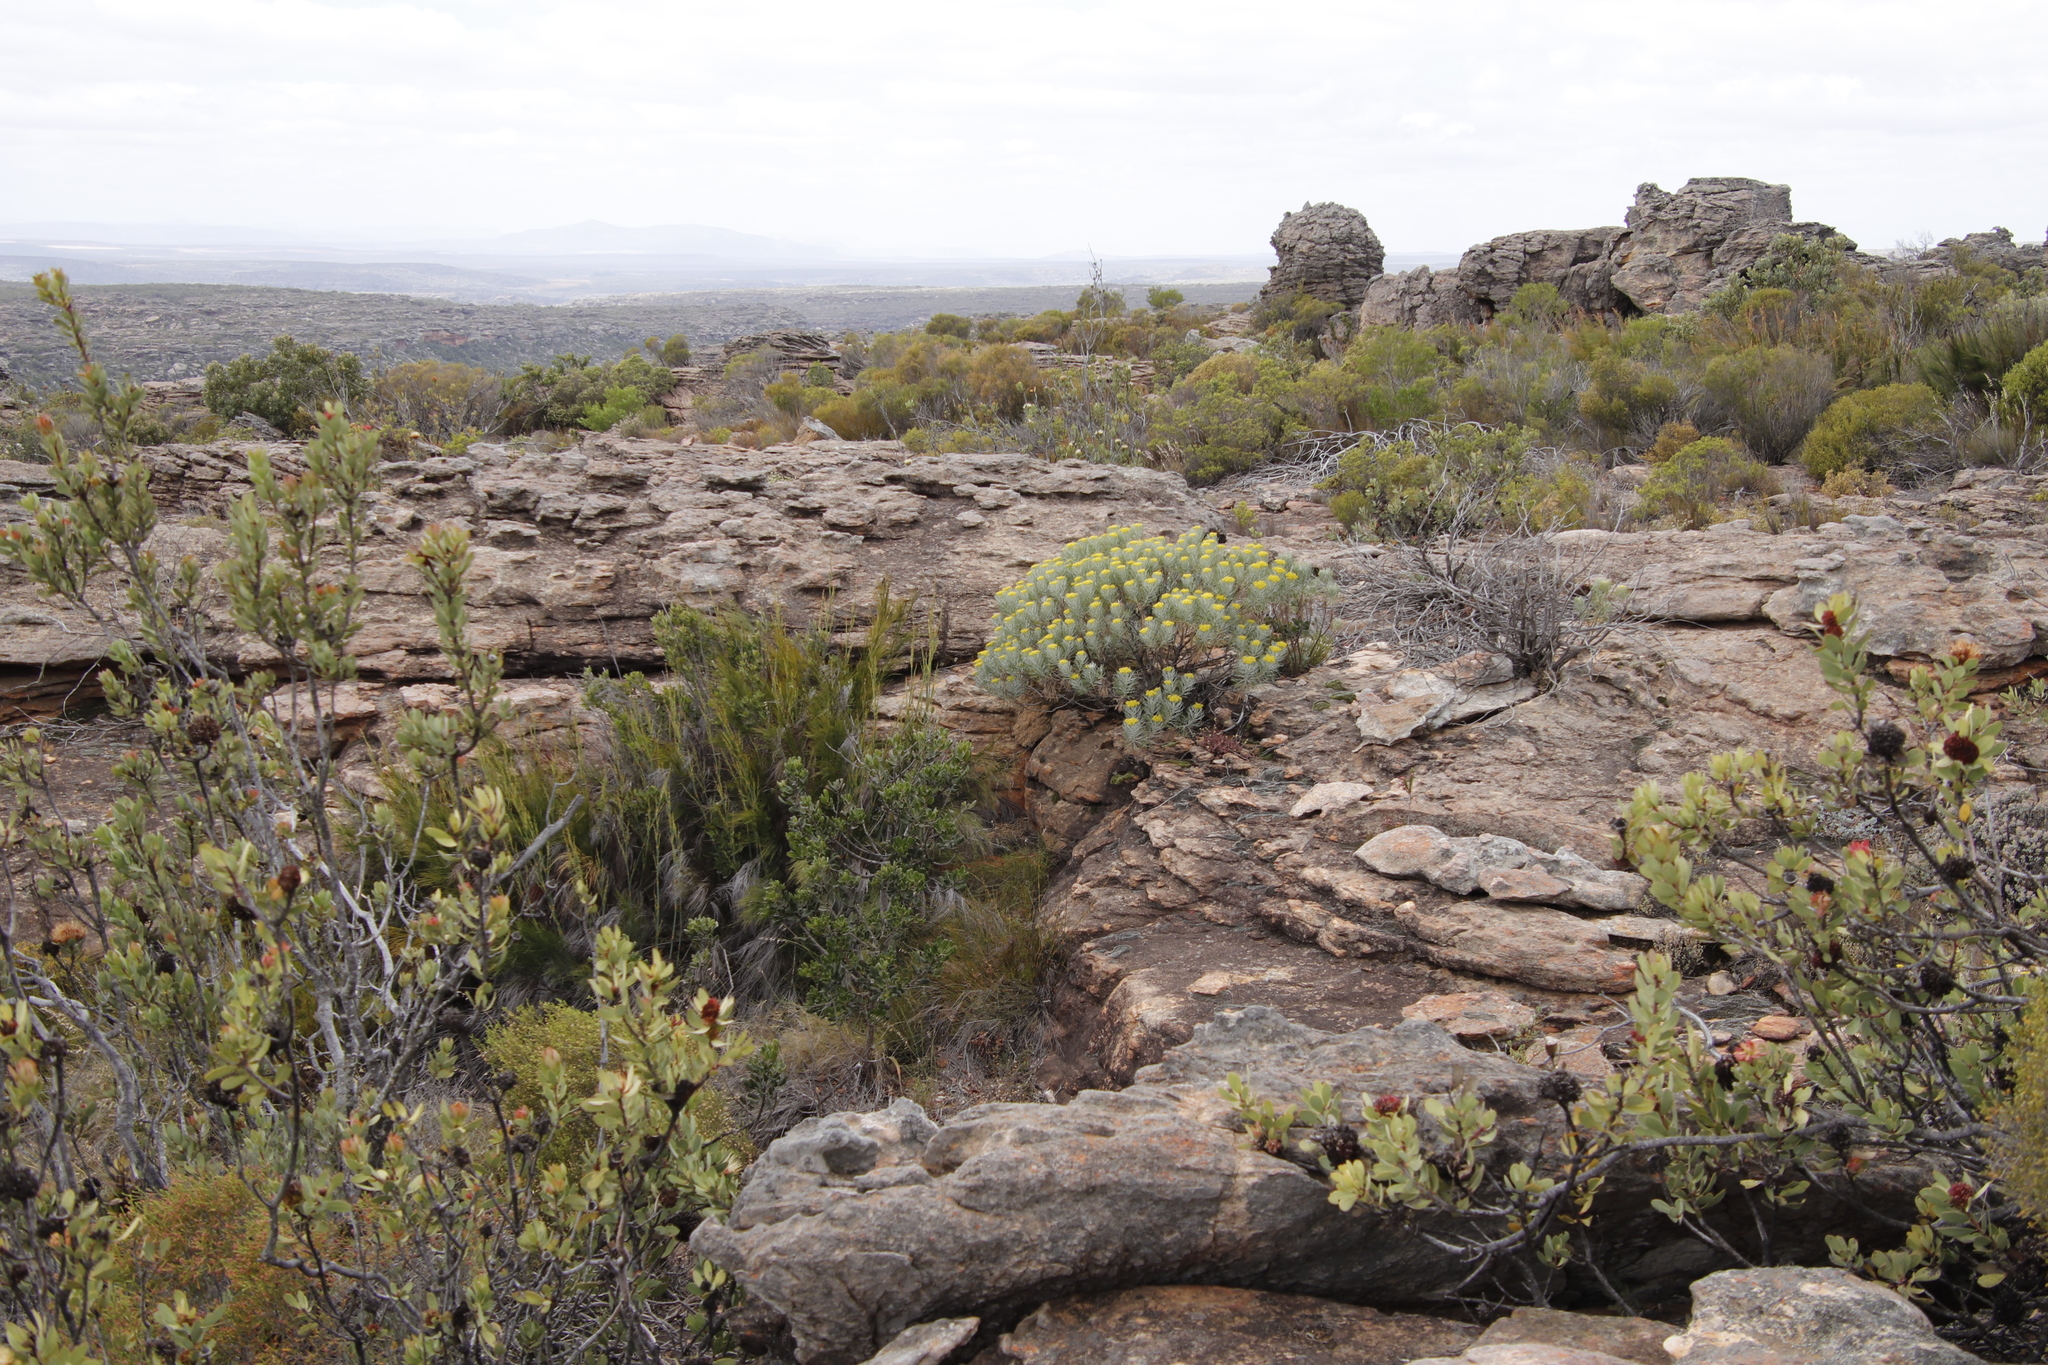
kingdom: Plantae
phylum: Tracheophyta
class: Magnoliopsida
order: Asterales
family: Asteraceae
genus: Hymenolepis
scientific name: Hymenolepis crithmifolia
